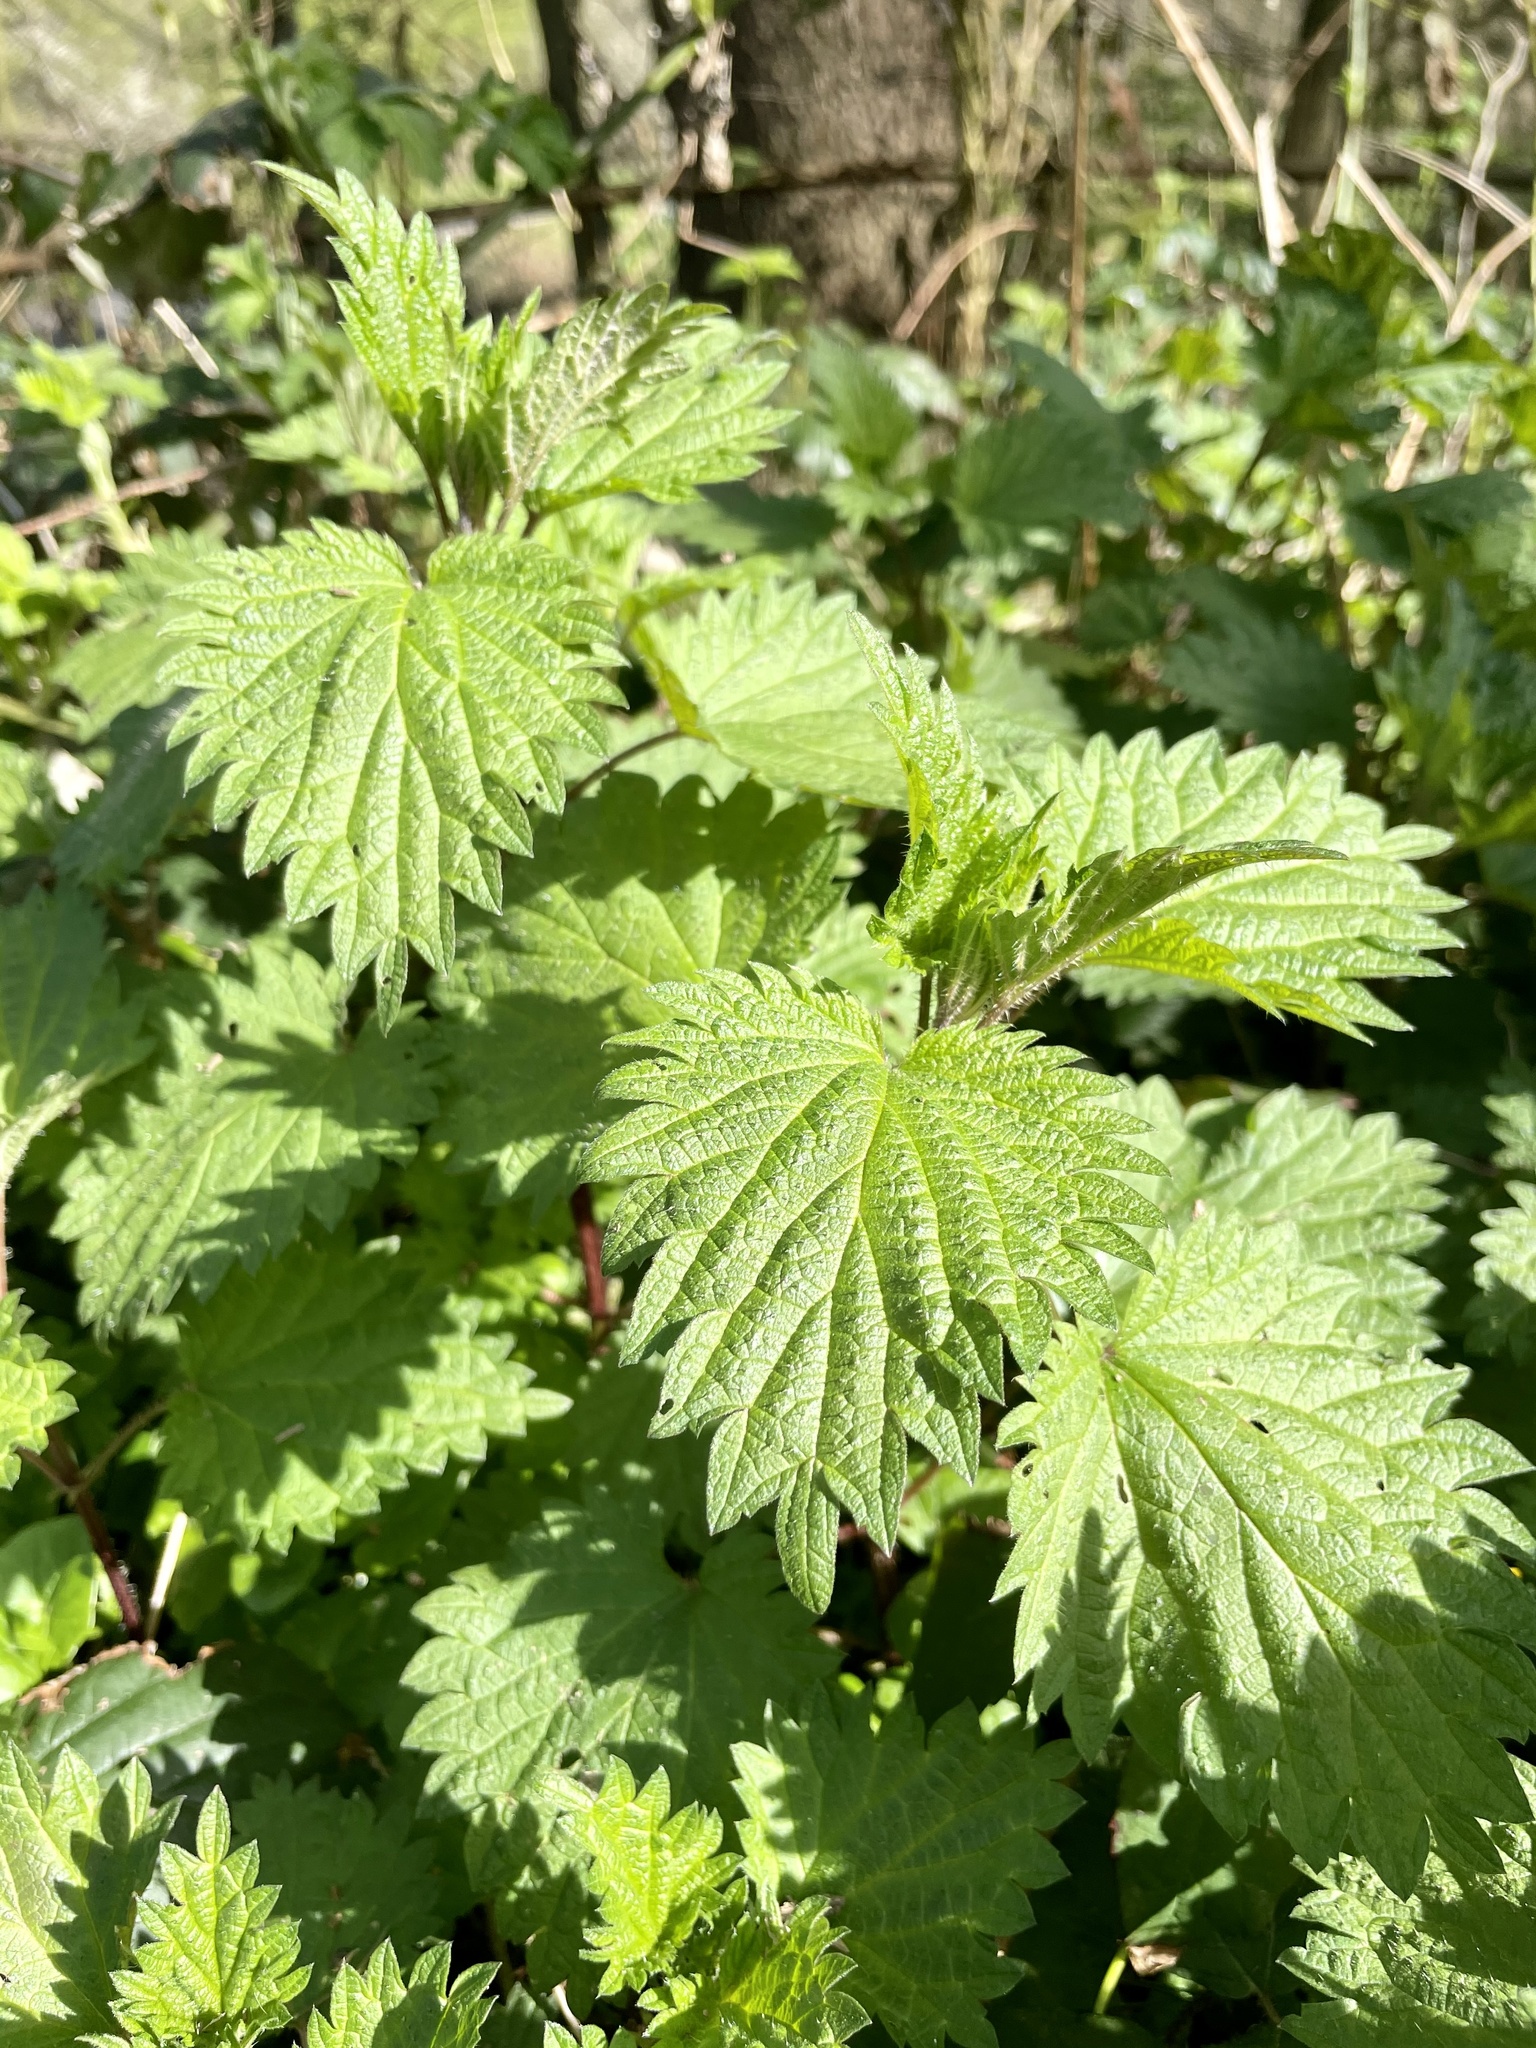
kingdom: Plantae
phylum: Tracheophyta
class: Magnoliopsida
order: Rosales
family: Urticaceae
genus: Urtica
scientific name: Urtica dioica
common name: Common nettle
